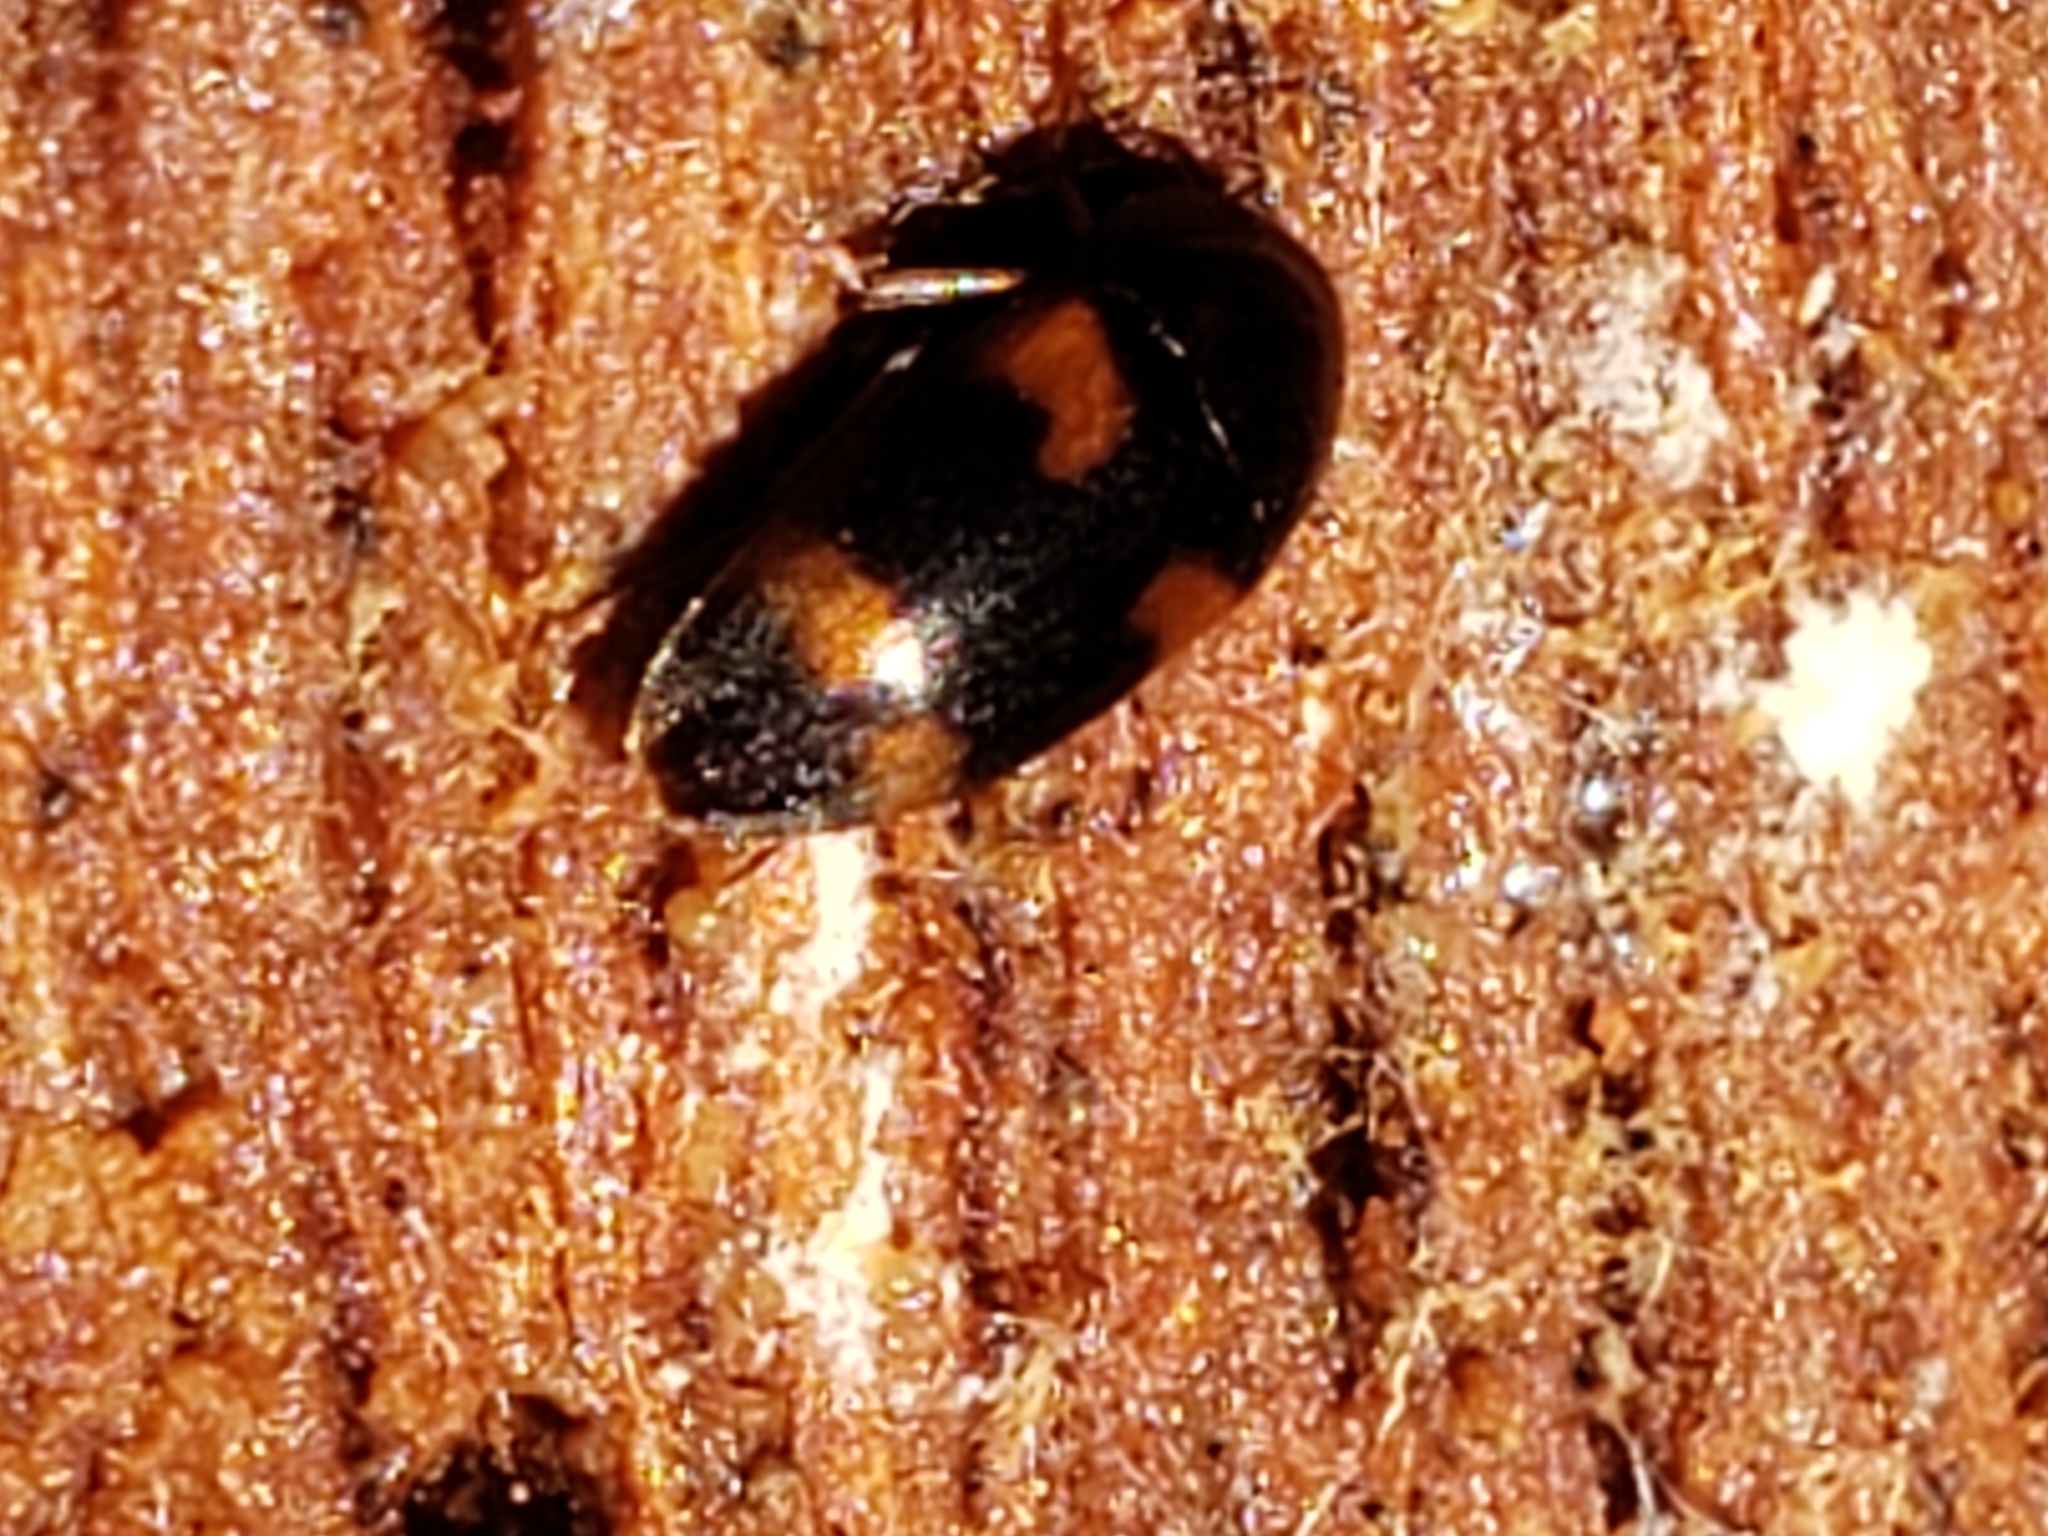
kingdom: Animalia
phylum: Arthropoda
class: Insecta
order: Coleoptera
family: Tetratomidae
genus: Holostrophus
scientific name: Holostrophus bifasciatus
